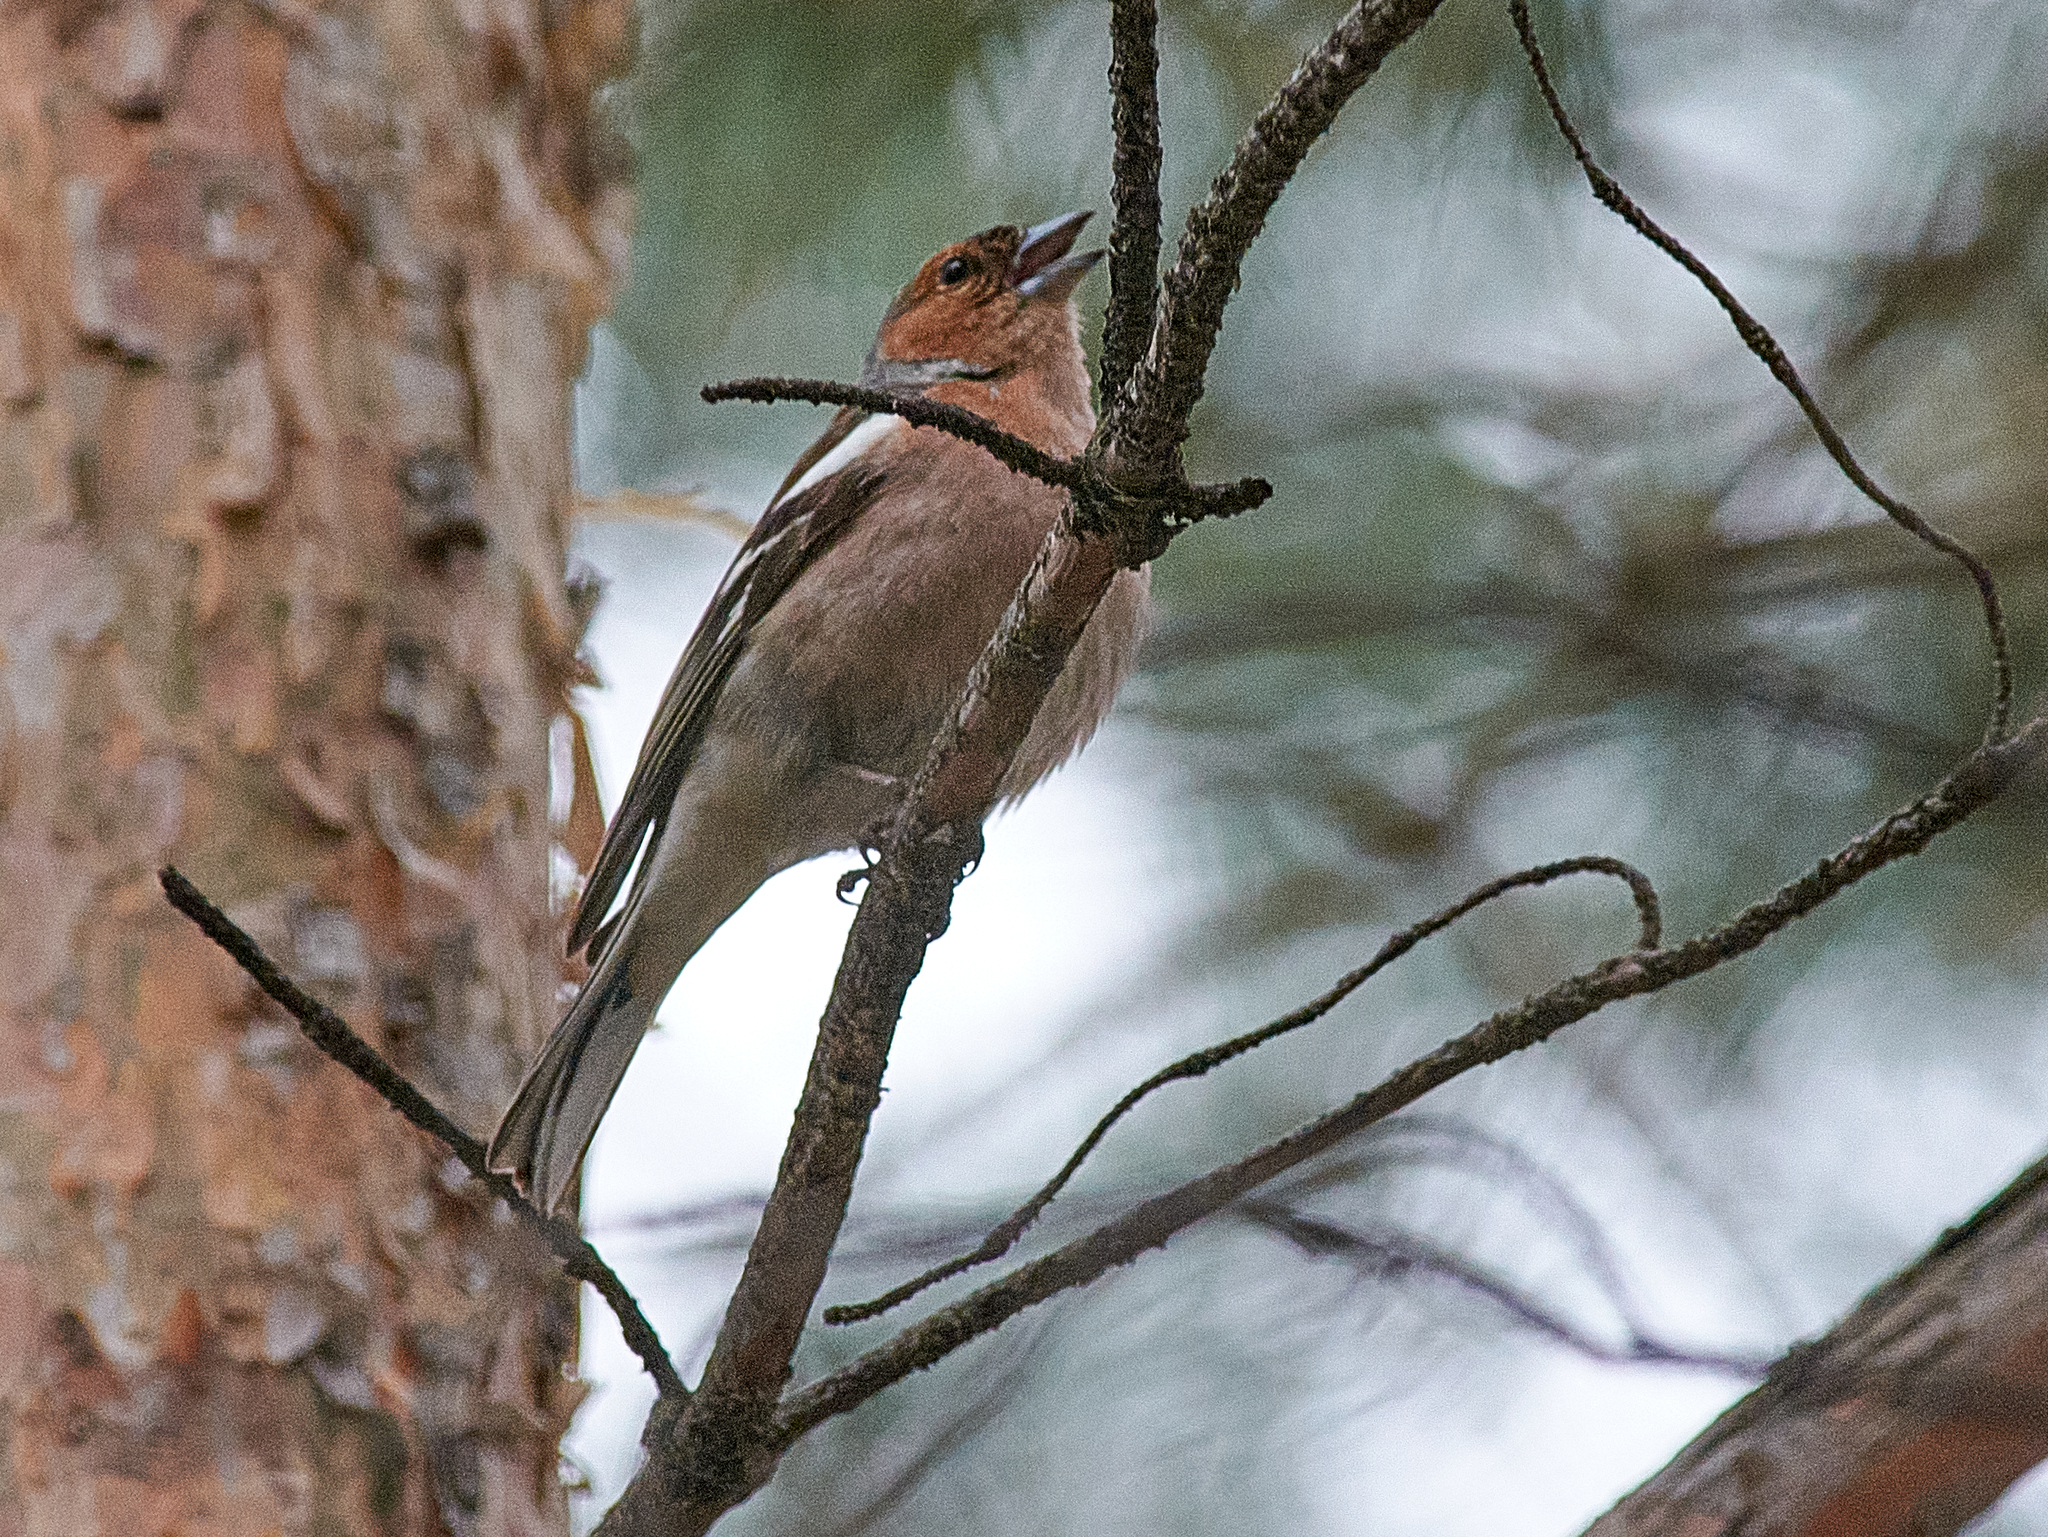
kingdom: Animalia
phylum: Chordata
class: Aves
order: Passeriformes
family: Fringillidae
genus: Fringilla
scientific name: Fringilla coelebs
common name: Common chaffinch
